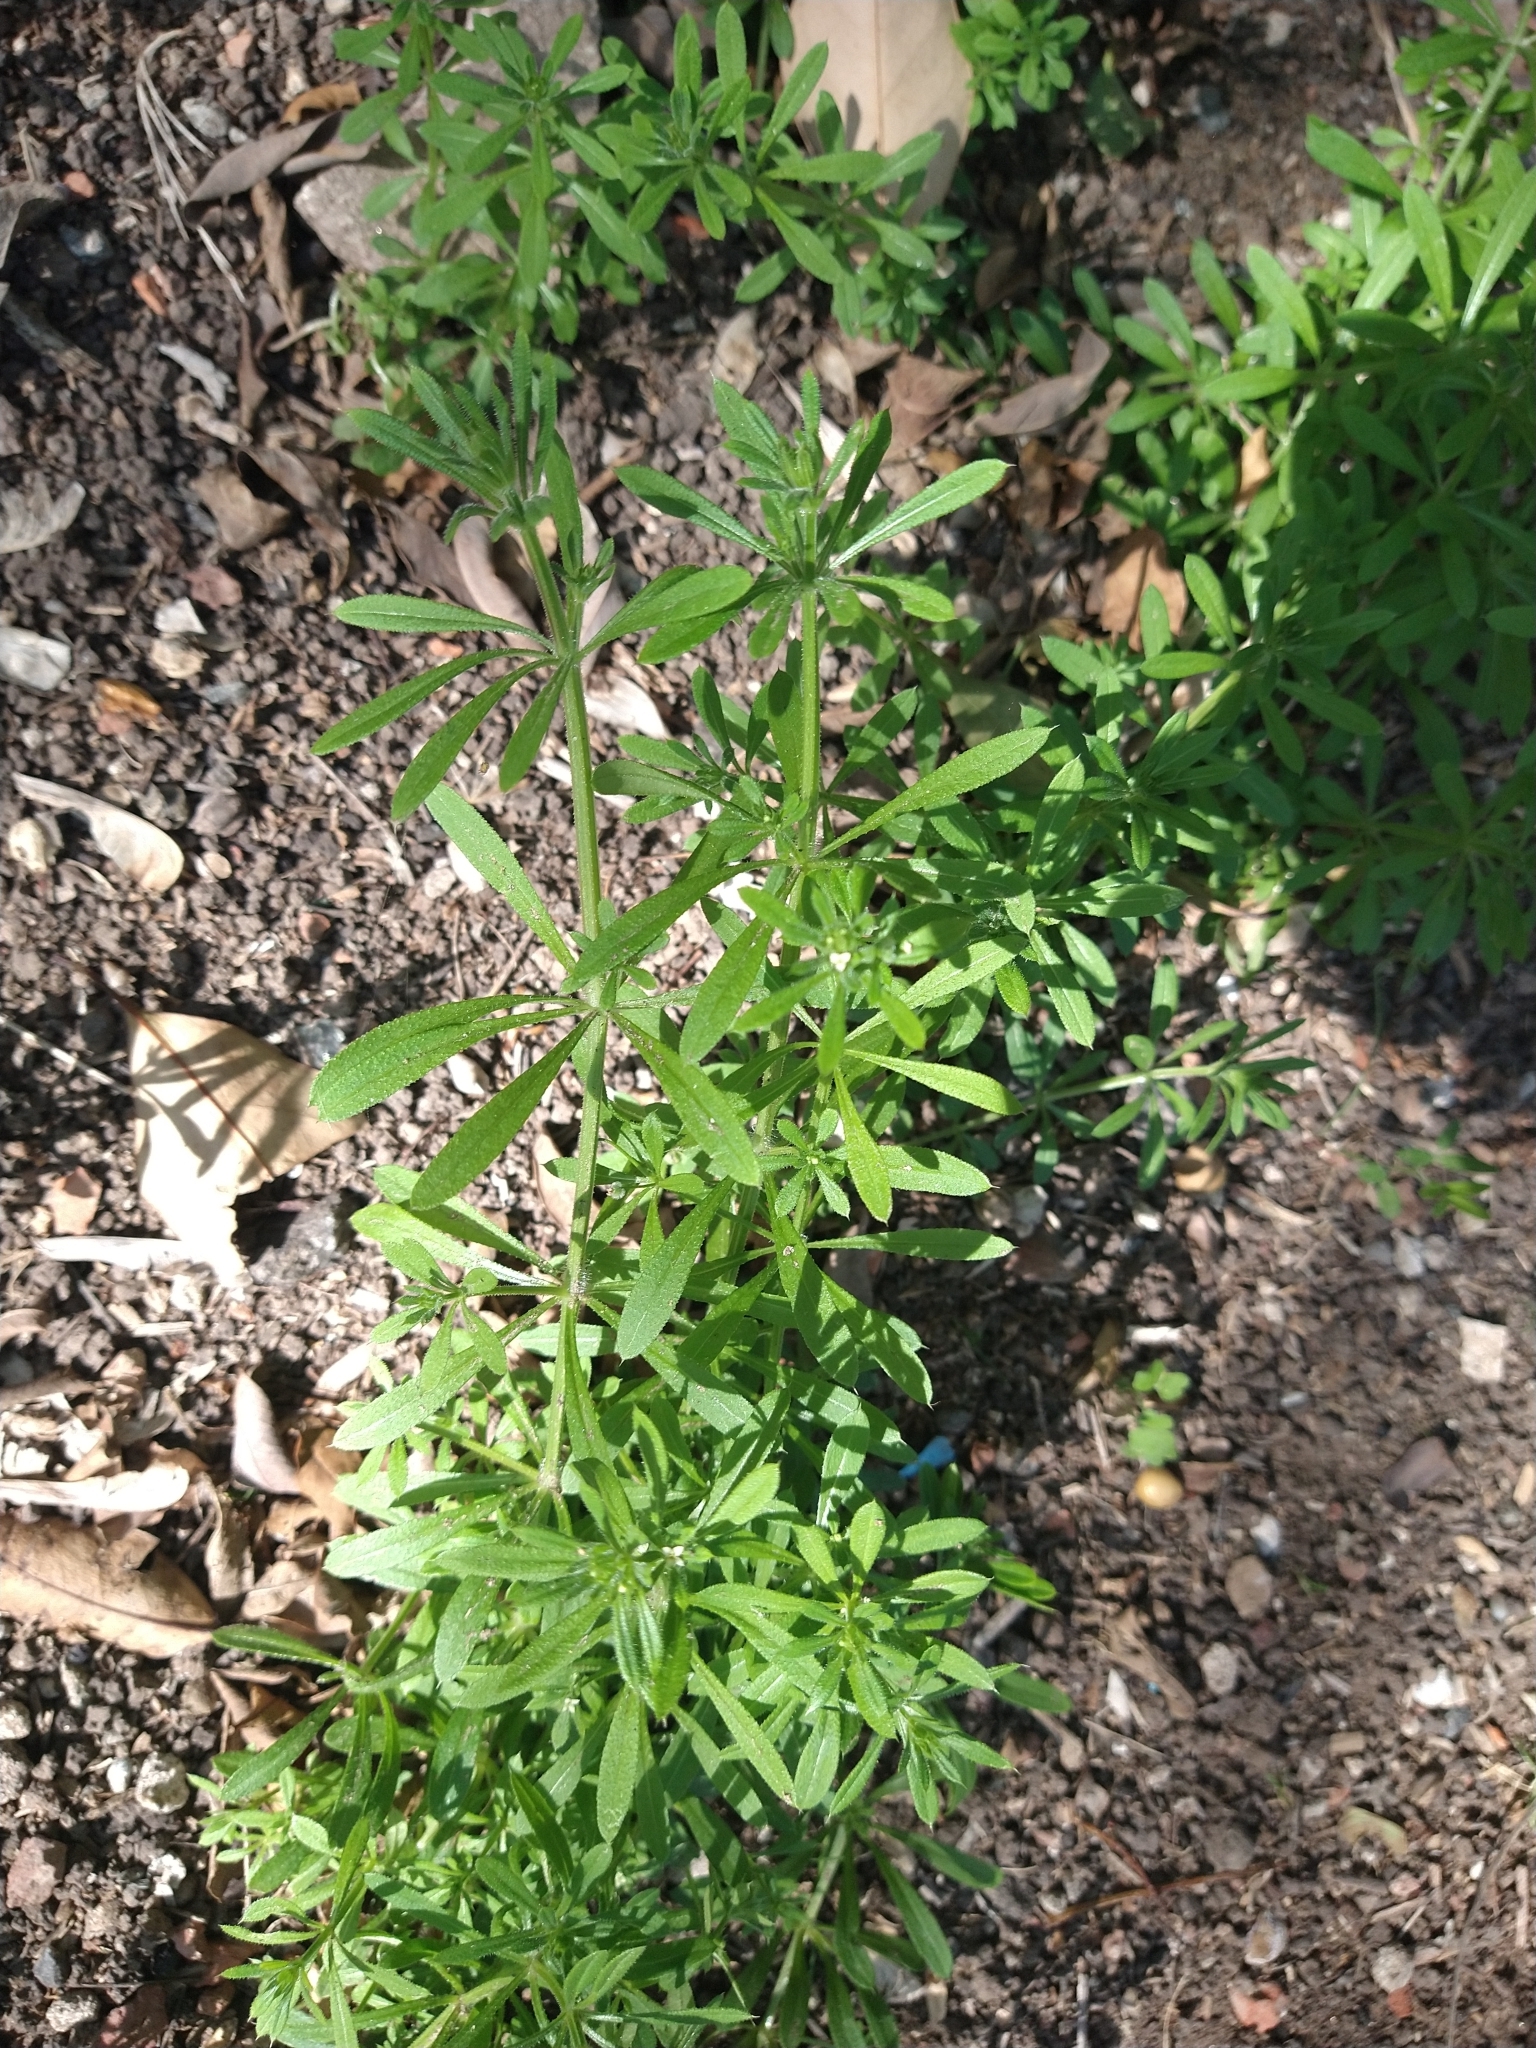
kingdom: Plantae
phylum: Tracheophyta
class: Magnoliopsida
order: Gentianales
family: Rubiaceae
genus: Galium
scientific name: Galium
